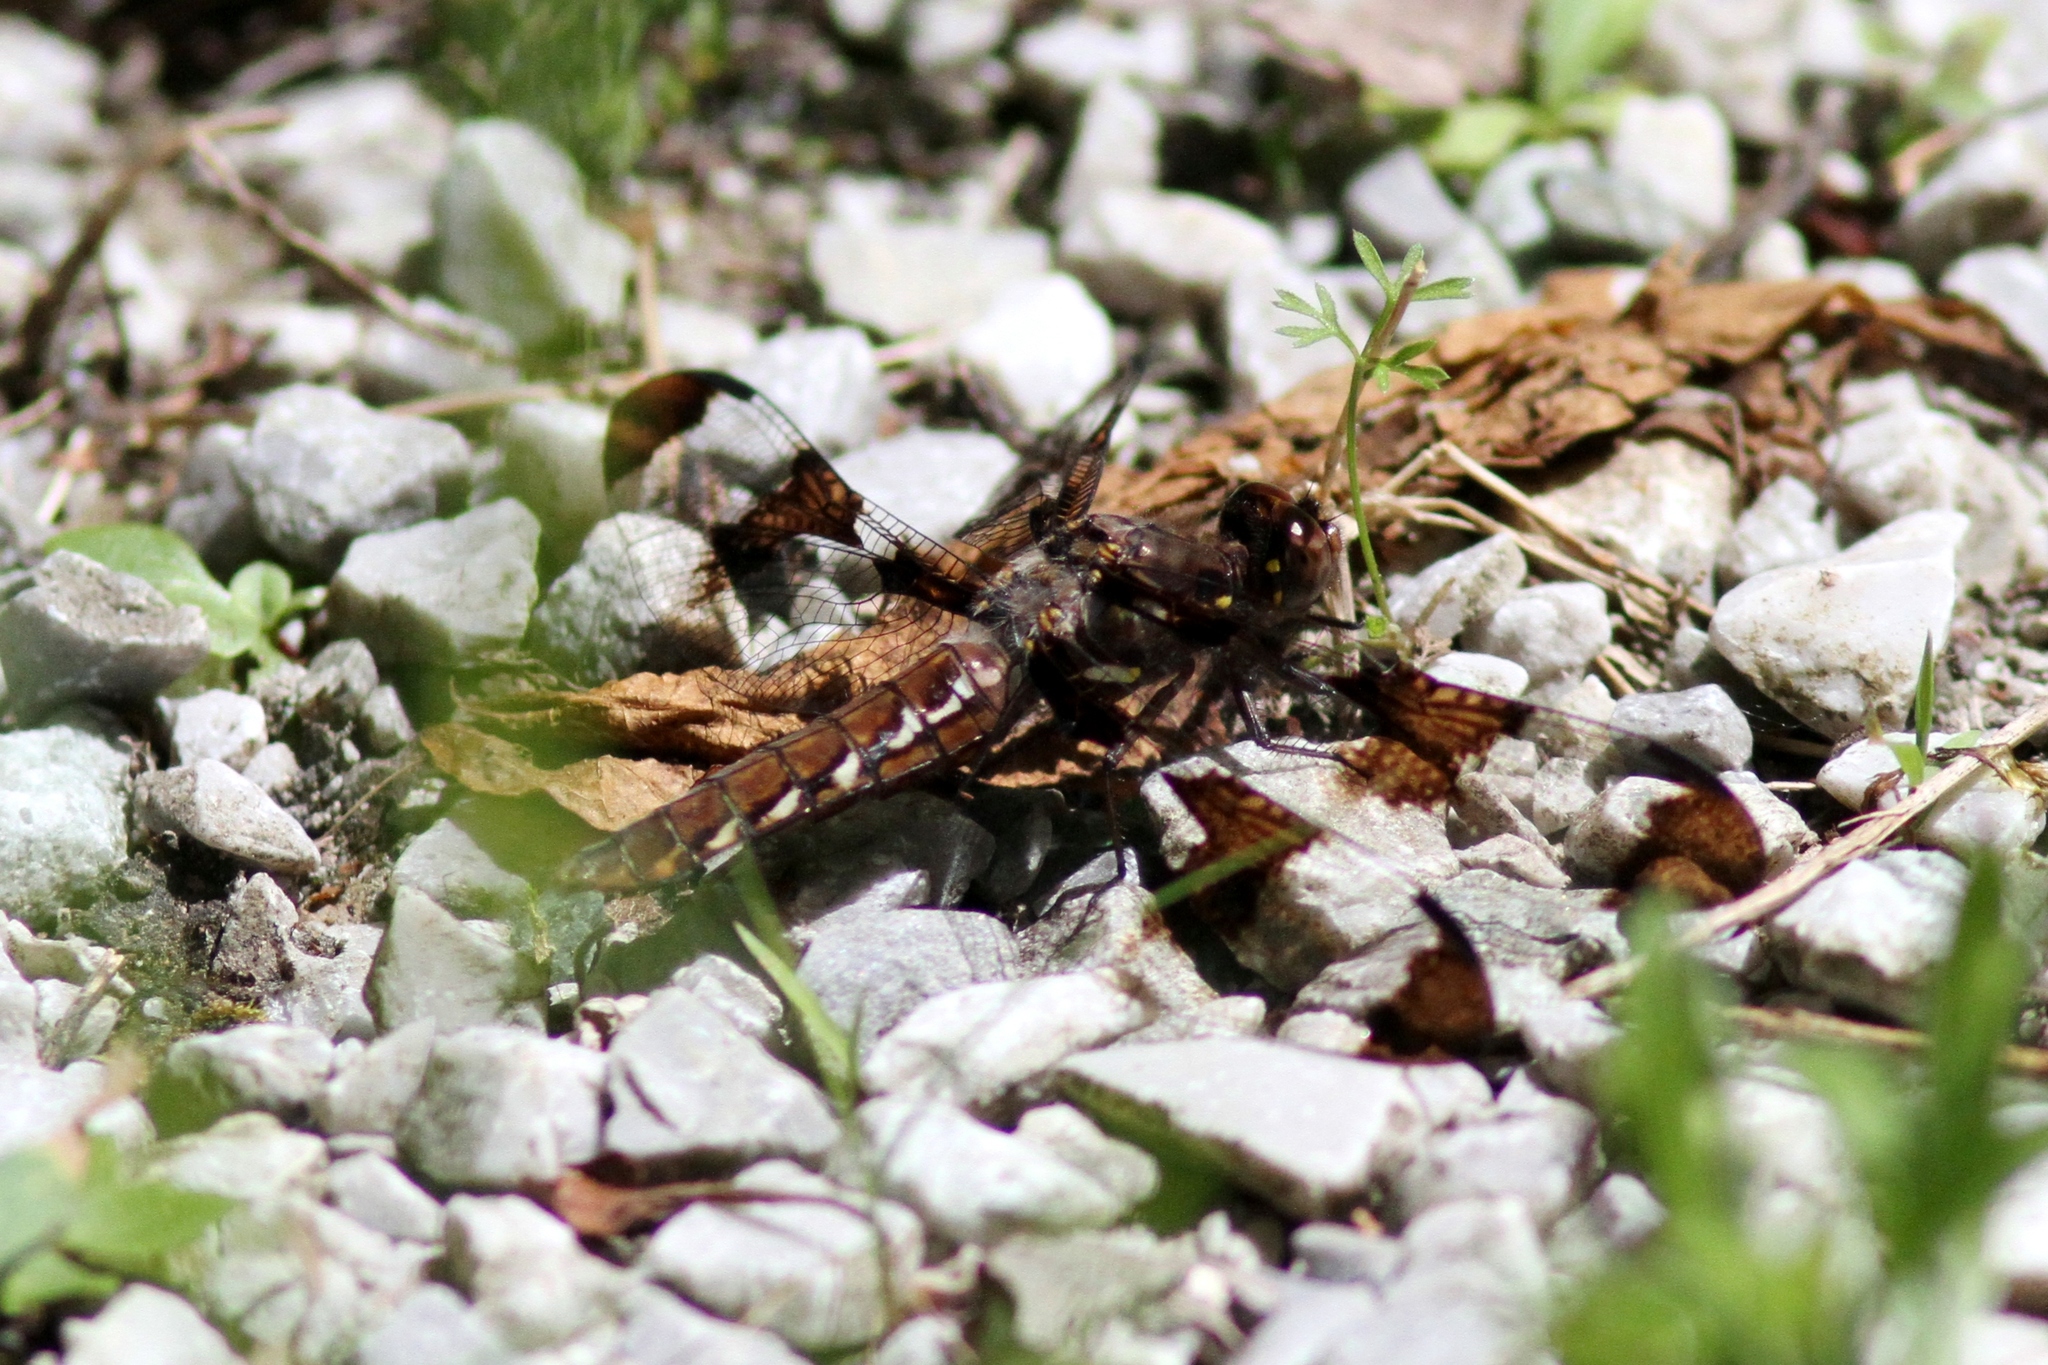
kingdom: Animalia
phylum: Arthropoda
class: Insecta
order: Odonata
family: Libellulidae
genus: Plathemis
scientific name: Plathemis lydia
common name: Common whitetail
